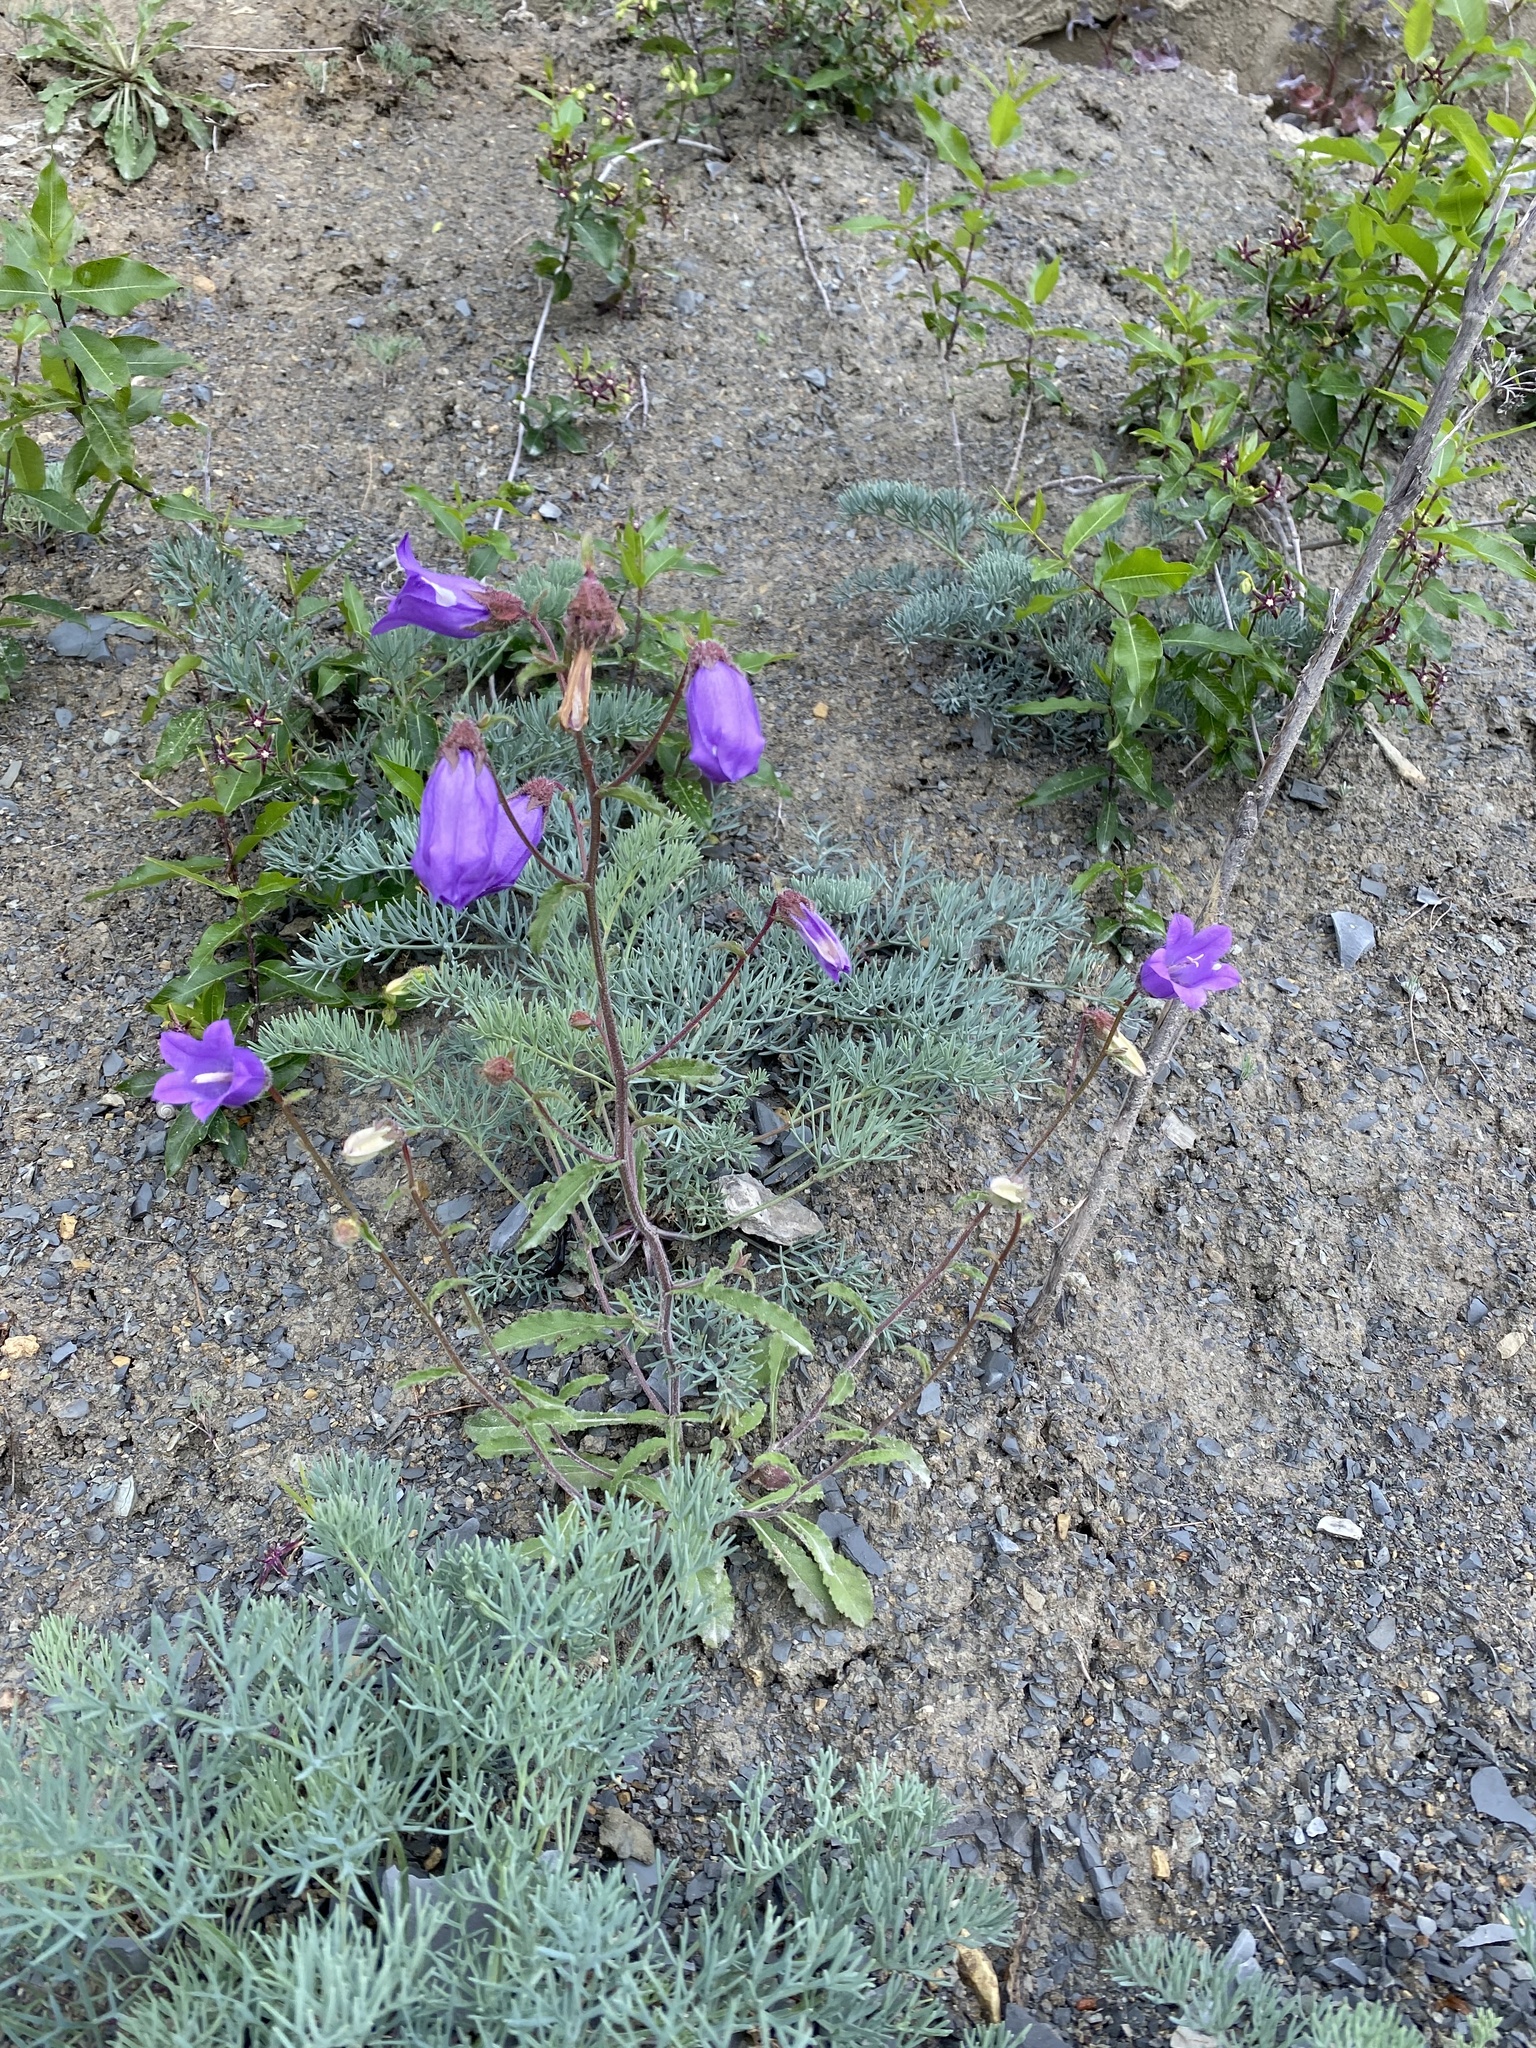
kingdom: Plantae
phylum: Tracheophyta
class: Magnoliopsida
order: Asterales
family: Campanulaceae
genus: Campanula
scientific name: Campanula komarovii
